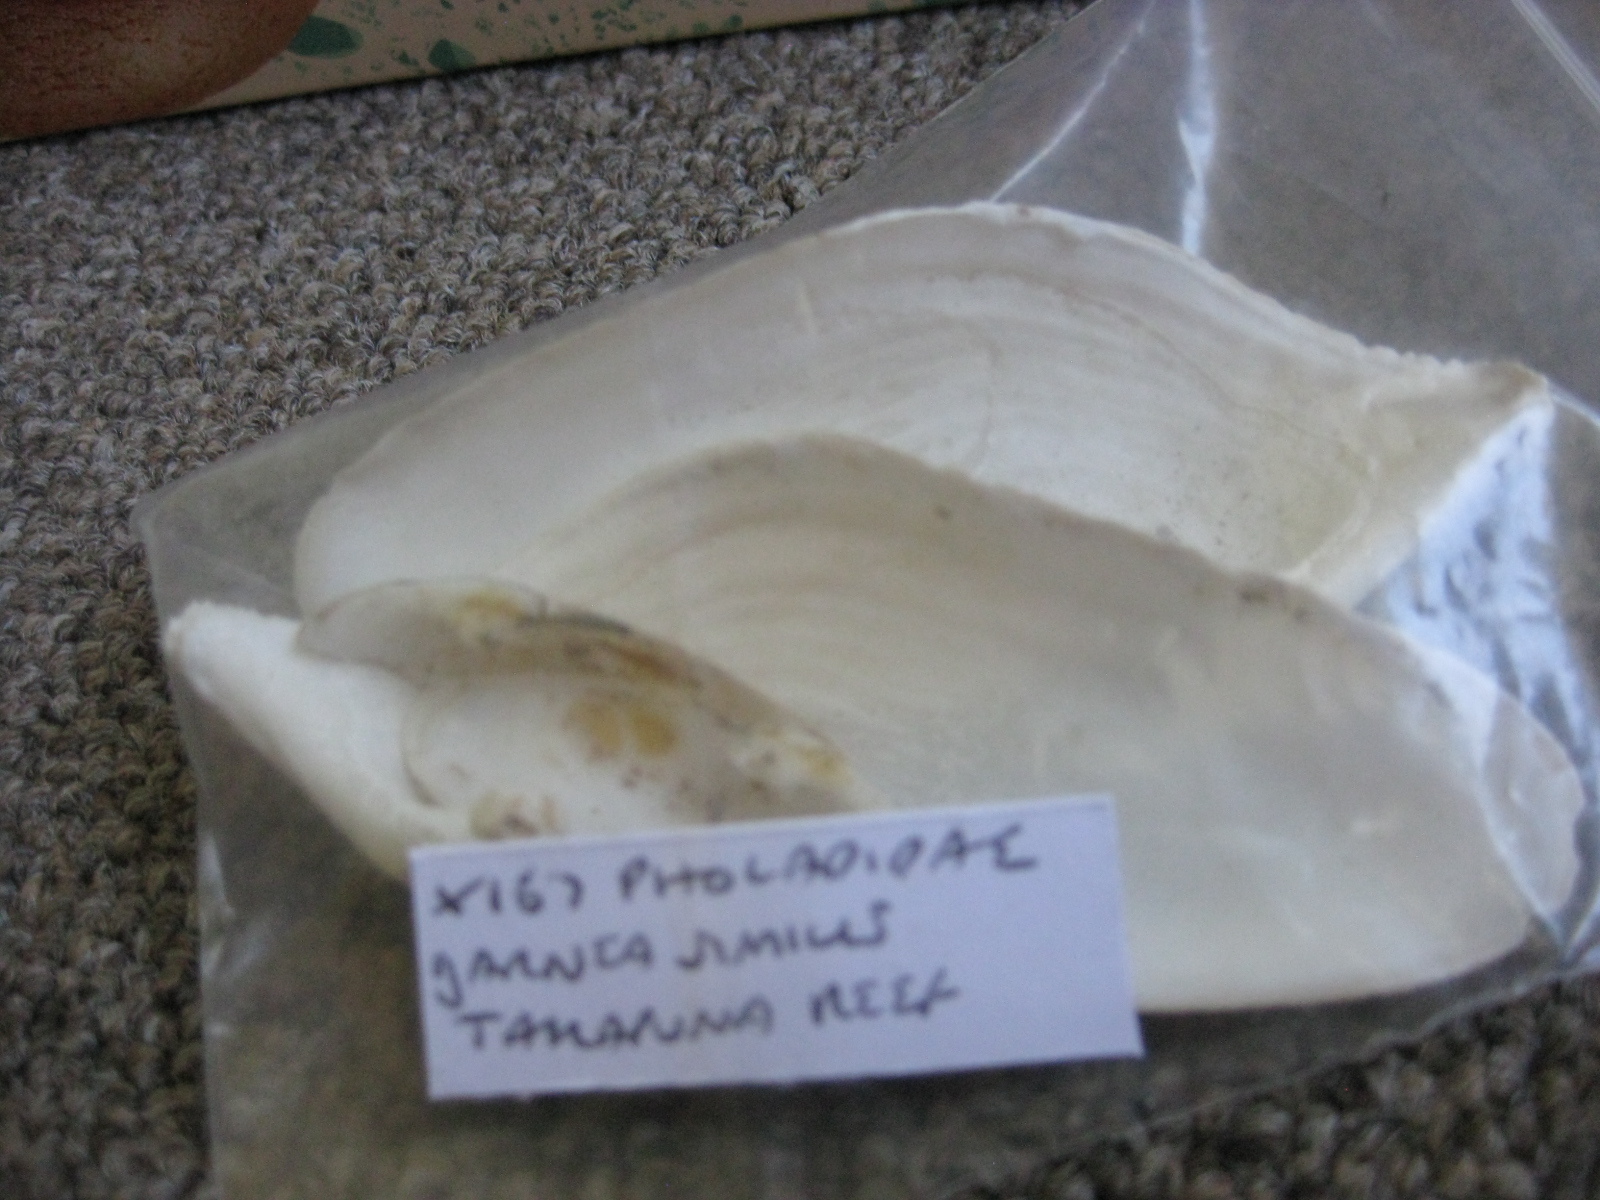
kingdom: Animalia
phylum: Mollusca
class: Bivalvia
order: Myida
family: Pholadidae
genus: Barnea
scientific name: Barnea similis
